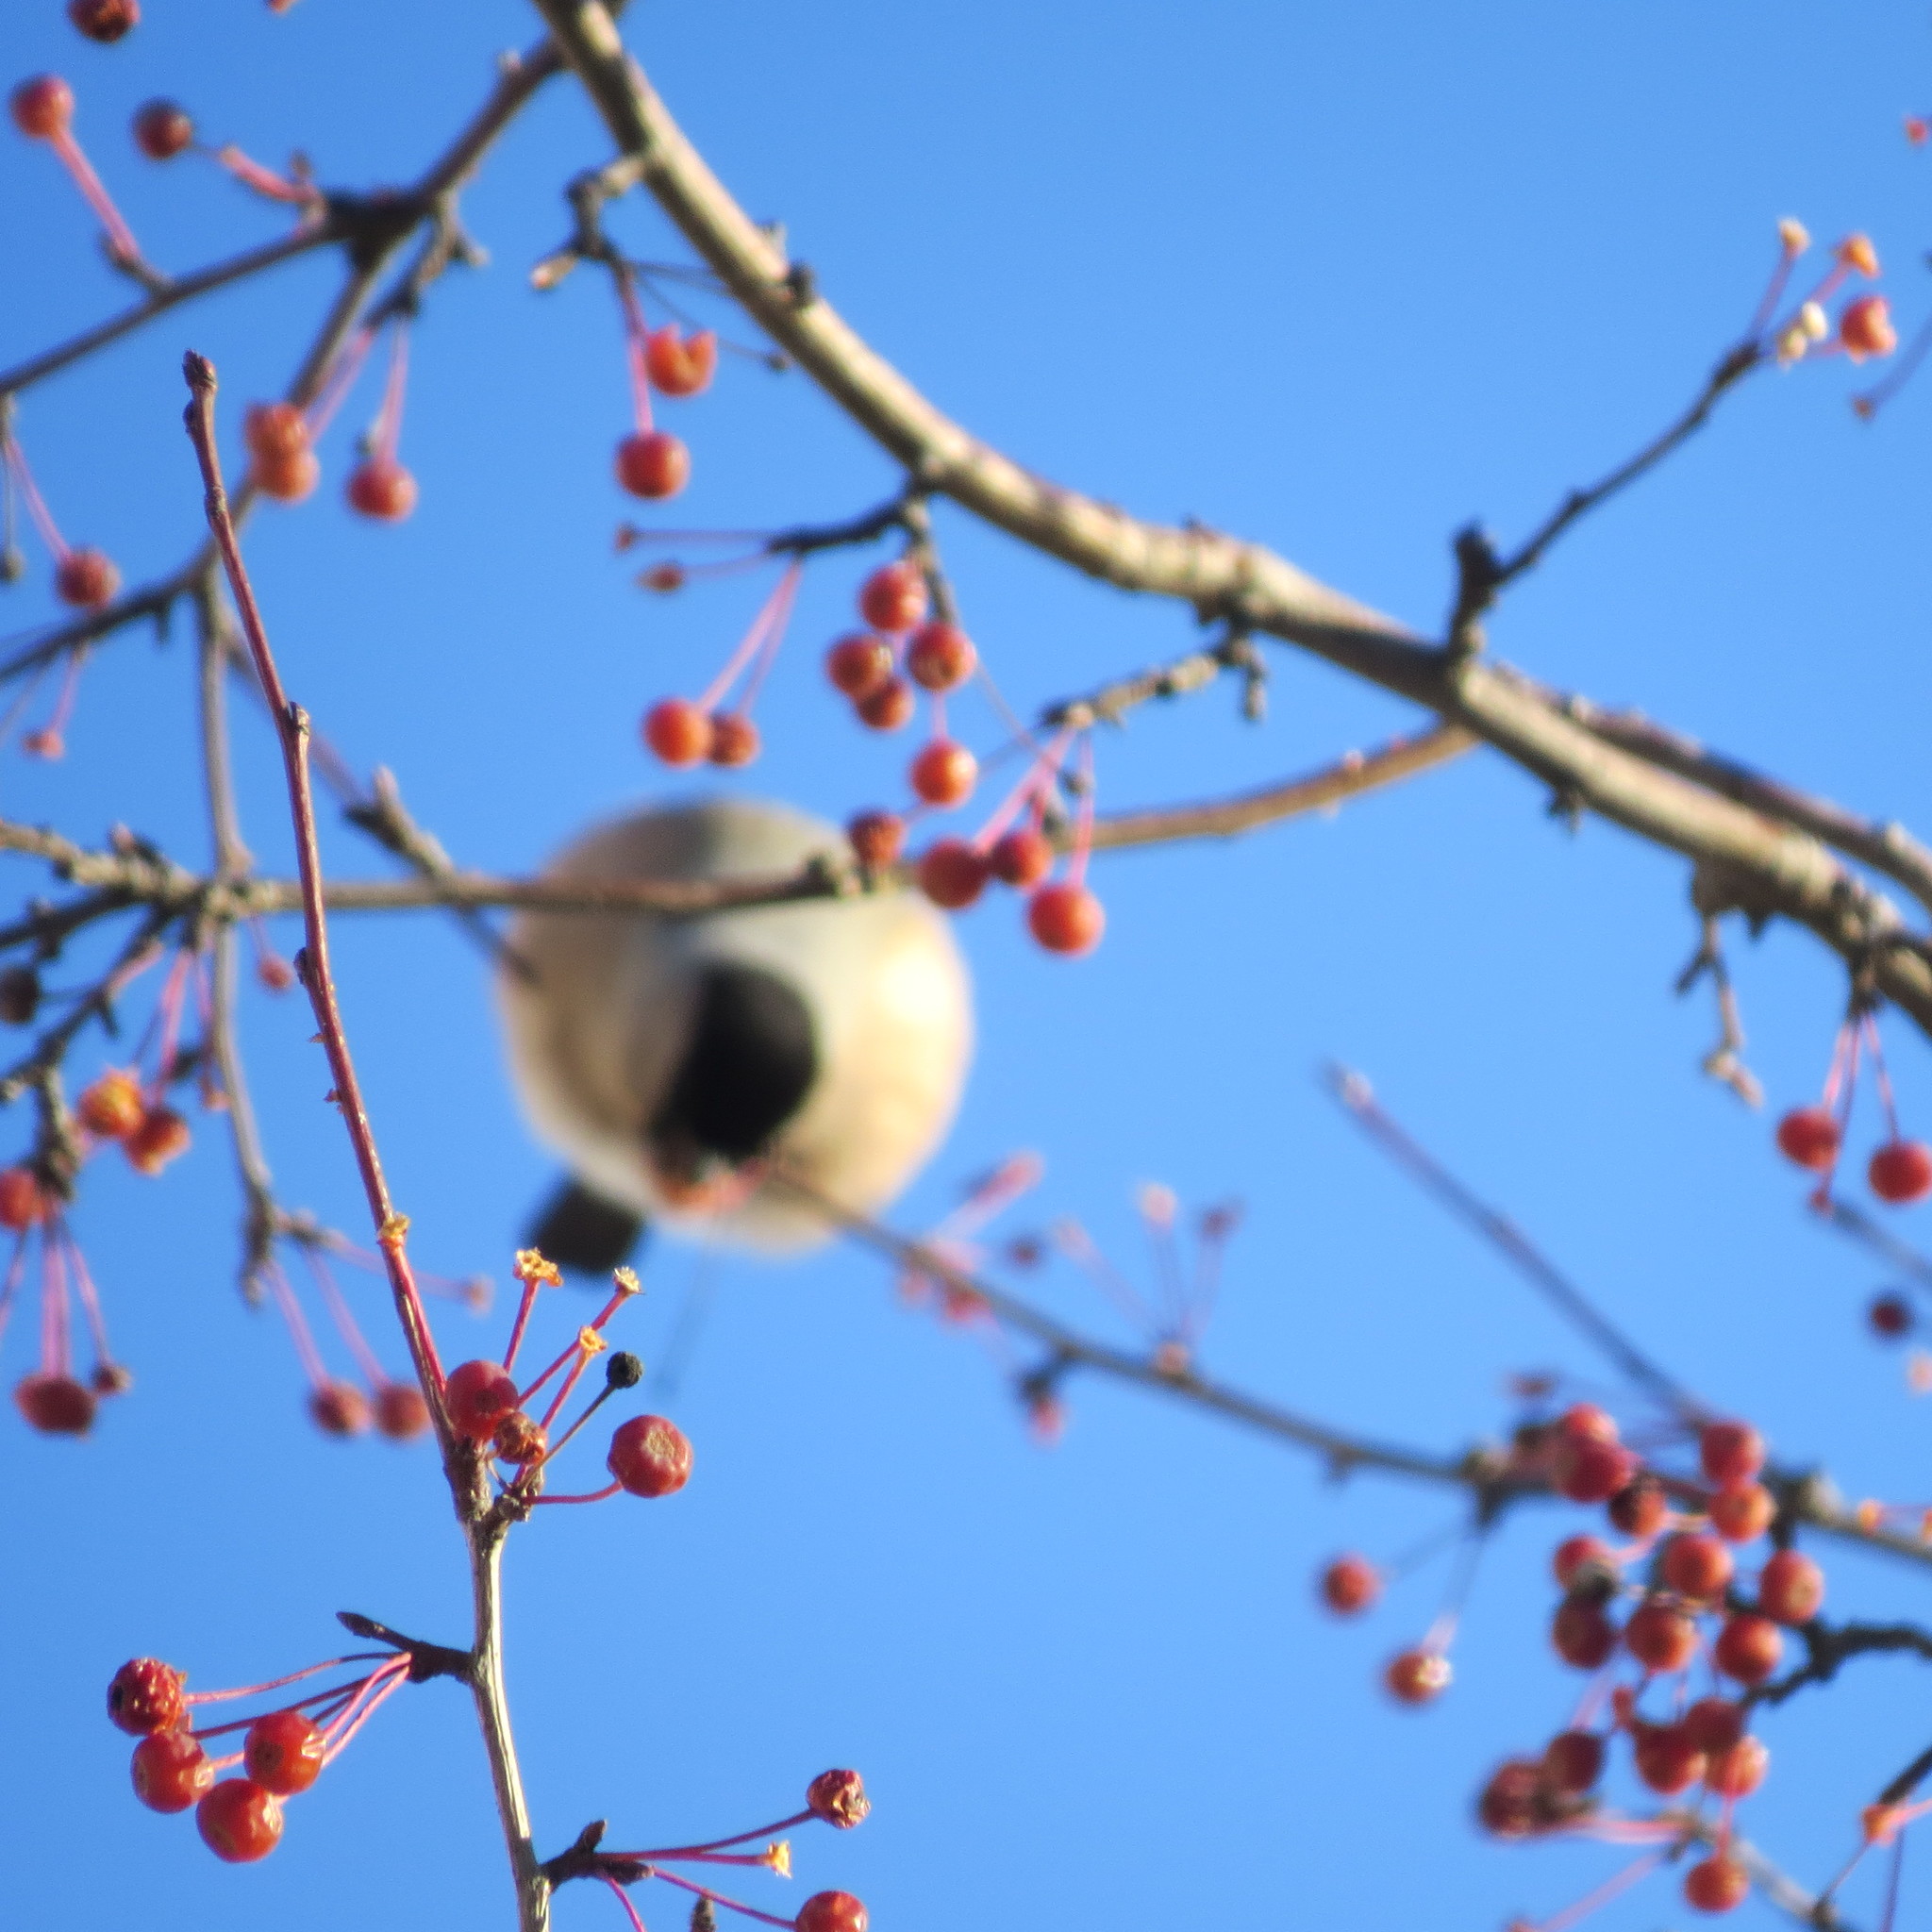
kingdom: Animalia
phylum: Chordata
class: Aves
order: Passeriformes
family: Fringillidae
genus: Pyrrhula
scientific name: Pyrrhula pyrrhula
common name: Eurasian bullfinch
